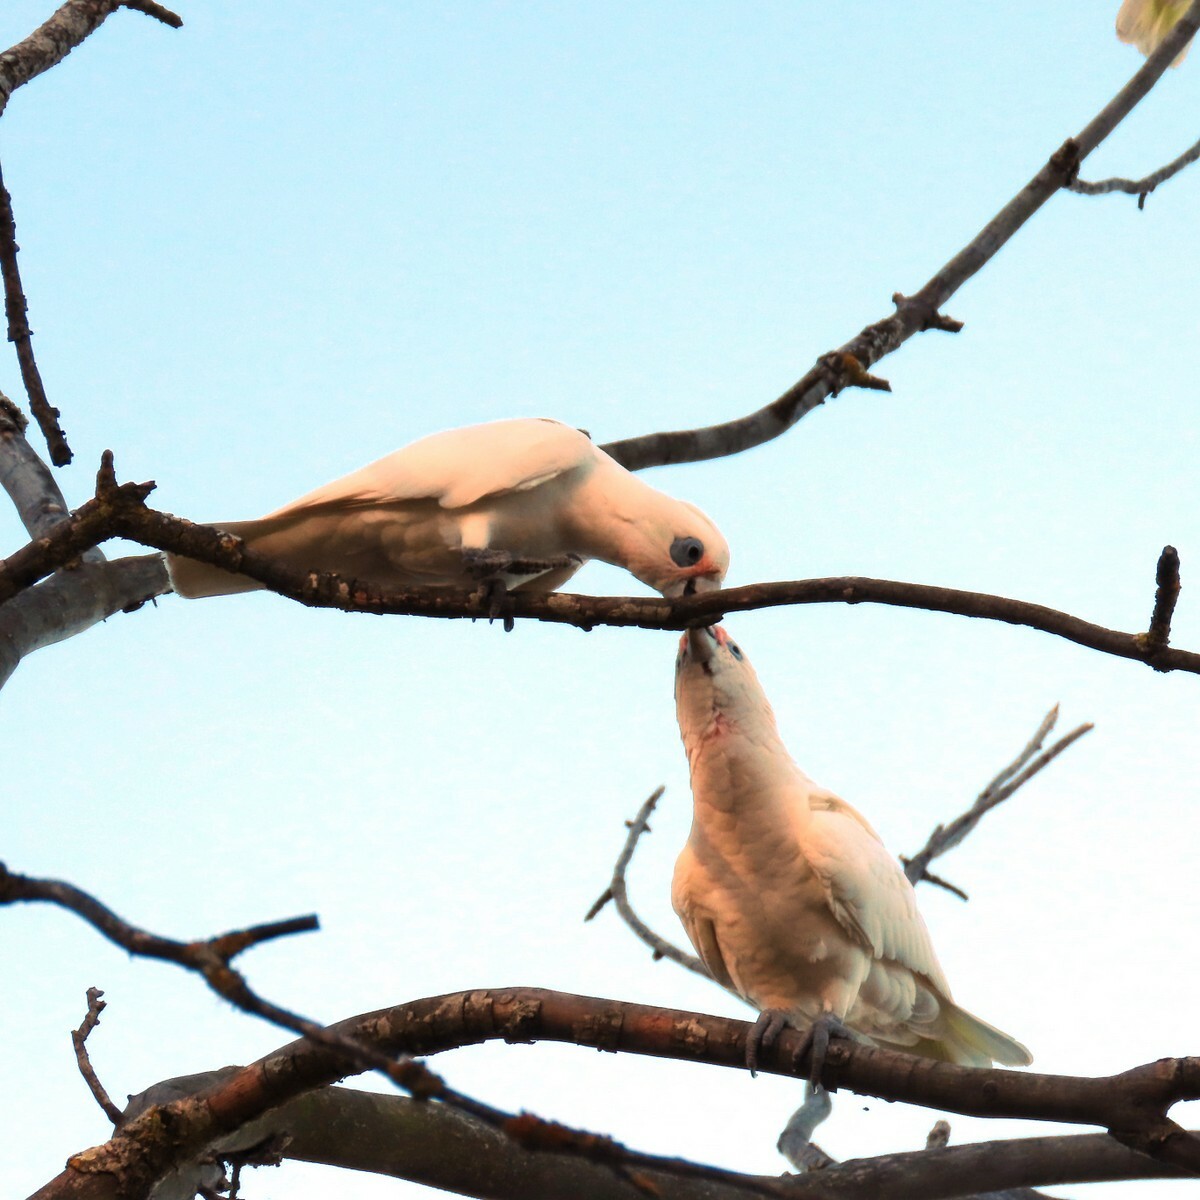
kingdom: Animalia
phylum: Chordata
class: Aves
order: Psittaciformes
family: Psittacidae
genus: Cacatua
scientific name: Cacatua sanguinea
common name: Little corella
